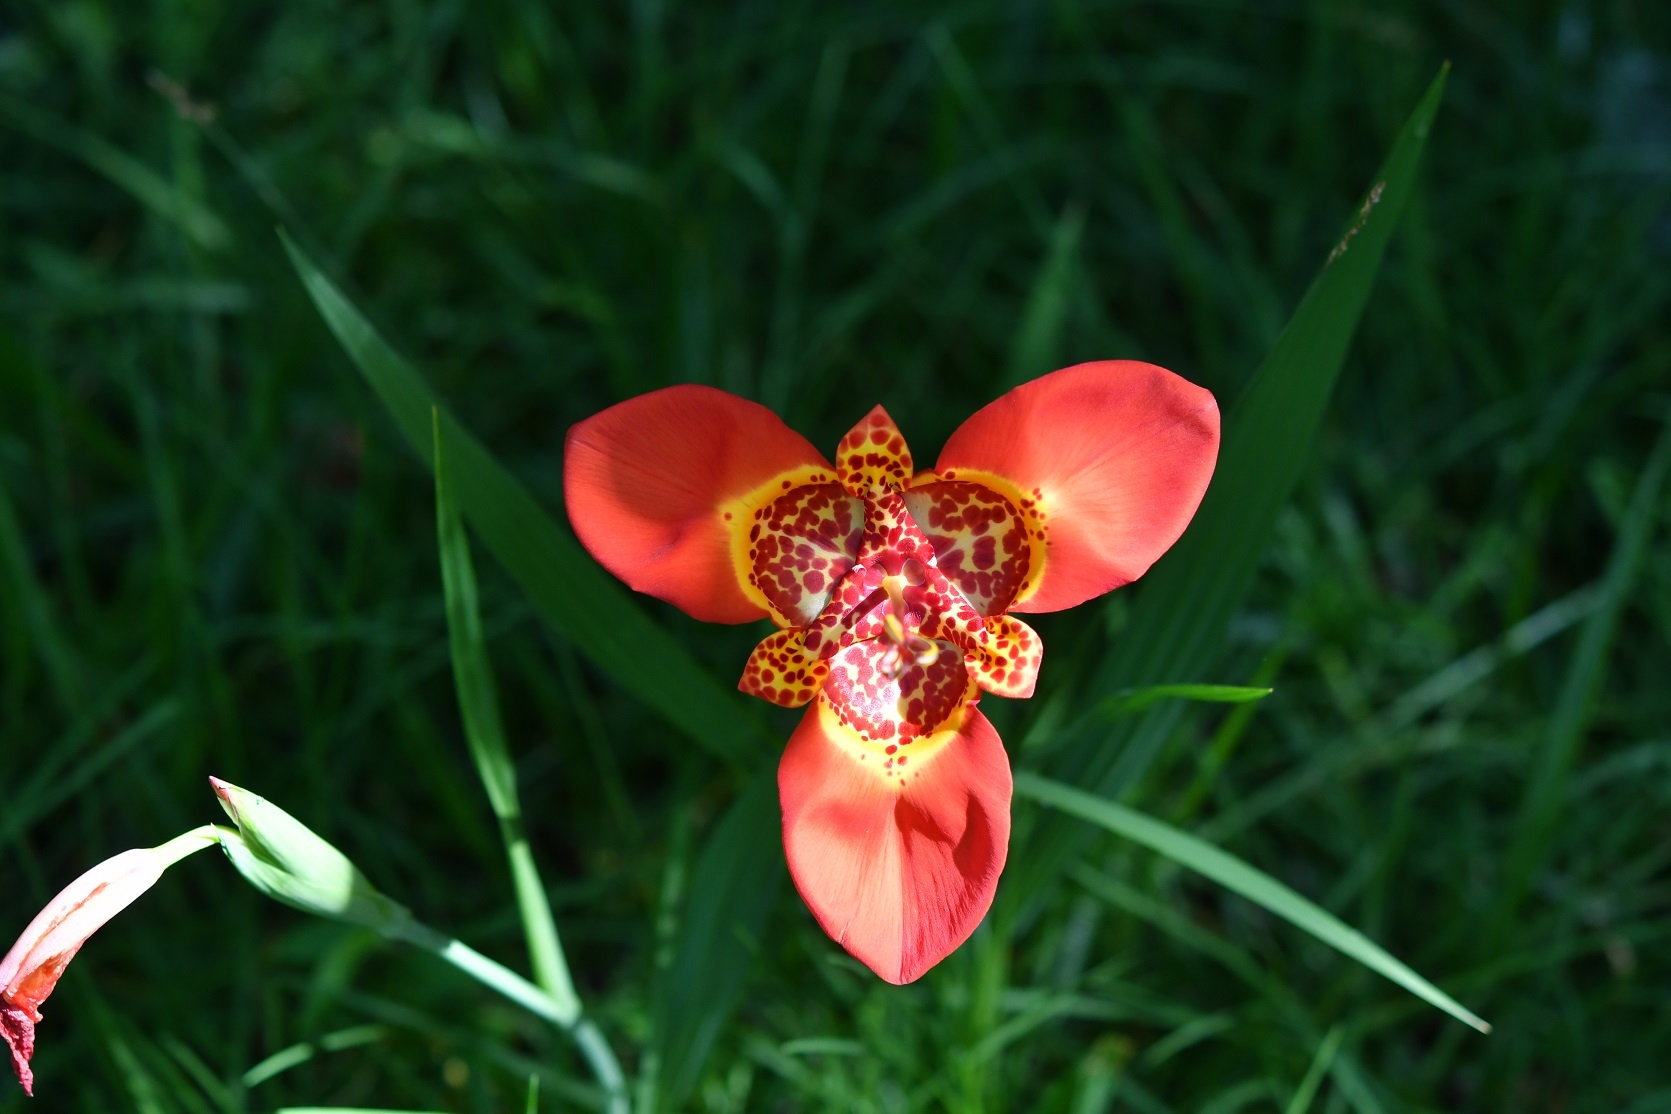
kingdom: Plantae
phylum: Tracheophyta
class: Liliopsida
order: Asparagales
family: Iridaceae
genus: Tigridia
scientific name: Tigridia pavonia
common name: Peacock-flower
